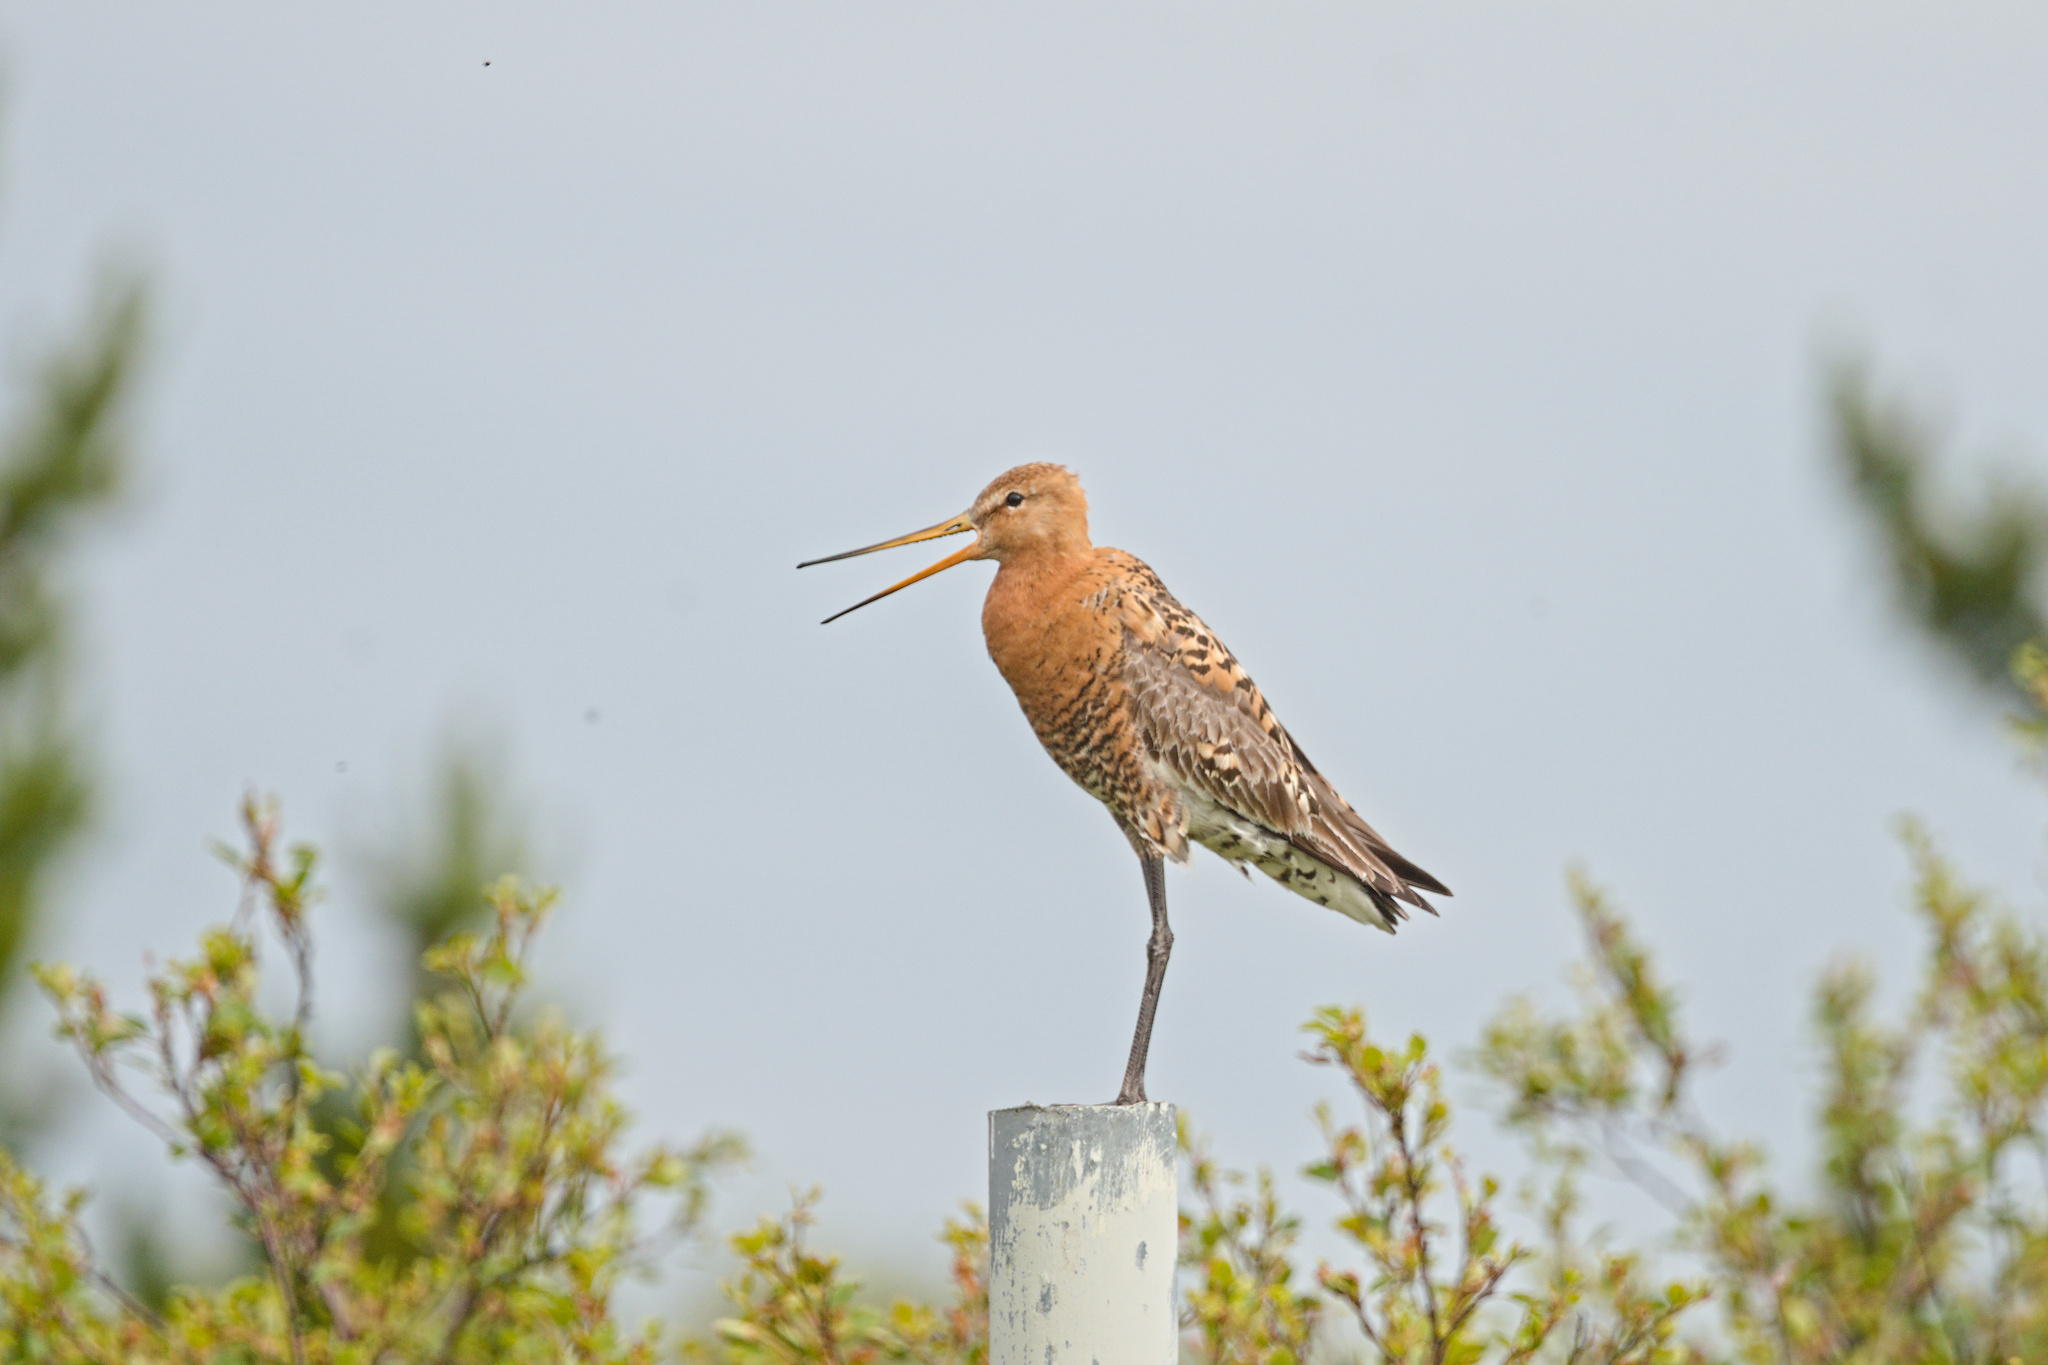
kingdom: Animalia
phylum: Chordata
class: Aves
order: Charadriiformes
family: Scolopacidae
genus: Limosa
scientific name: Limosa limosa
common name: Black-tailed godwit
